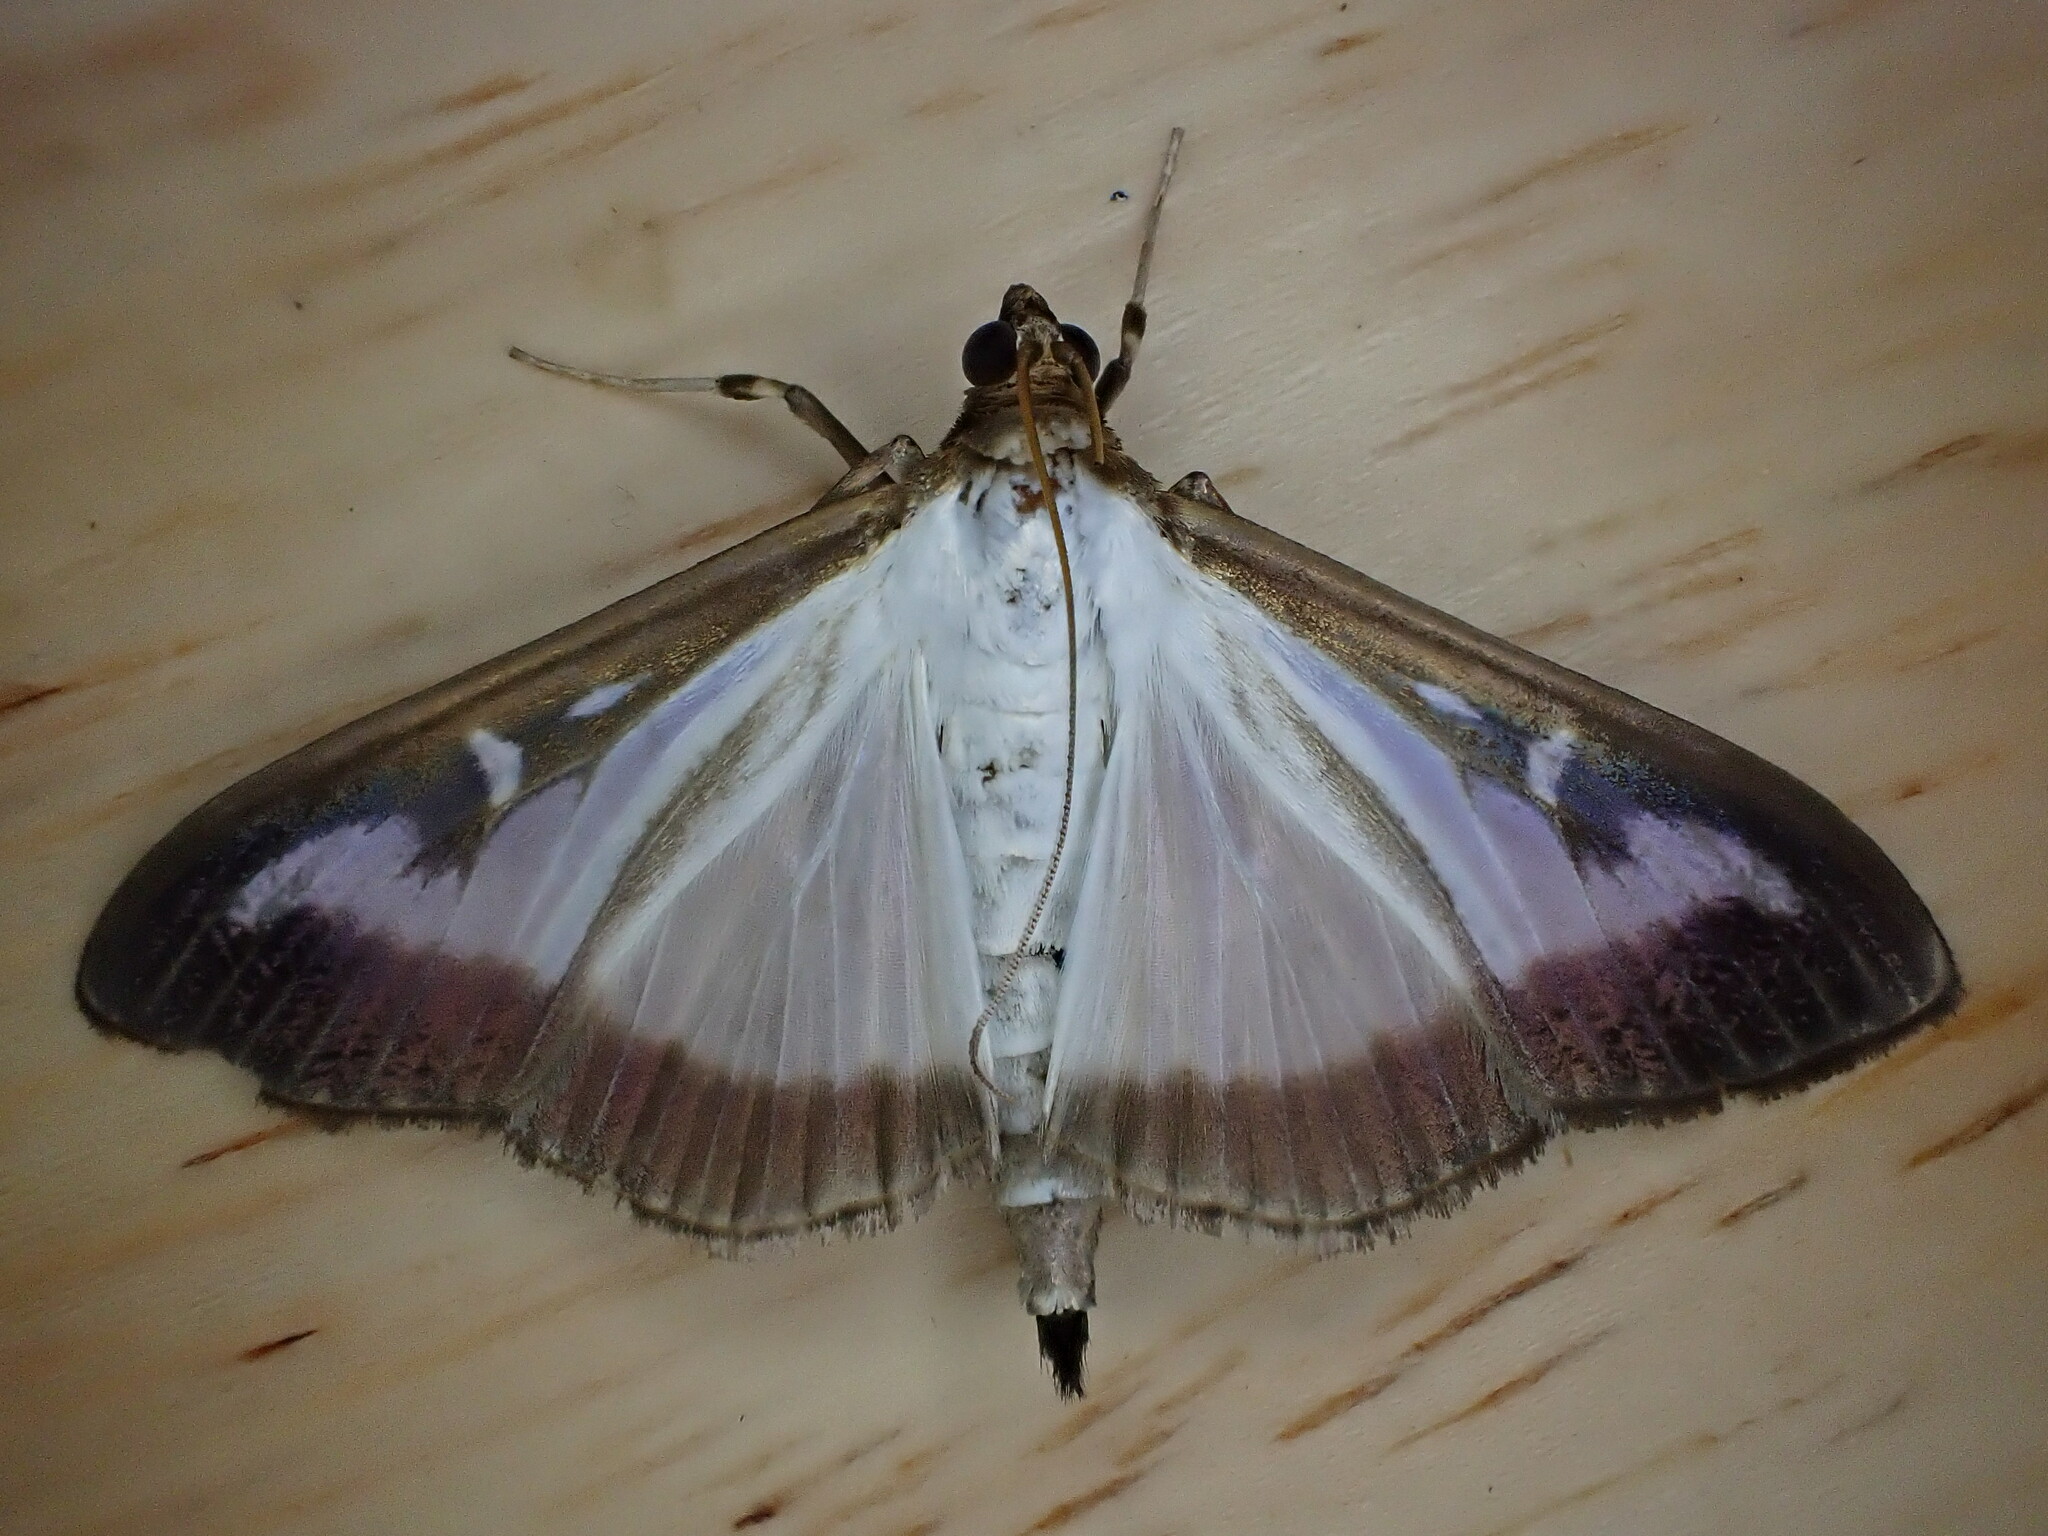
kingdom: Animalia
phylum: Arthropoda
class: Insecta
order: Lepidoptera
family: Crambidae
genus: Cydalima
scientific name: Cydalima perspectalis
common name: Box tree moth
